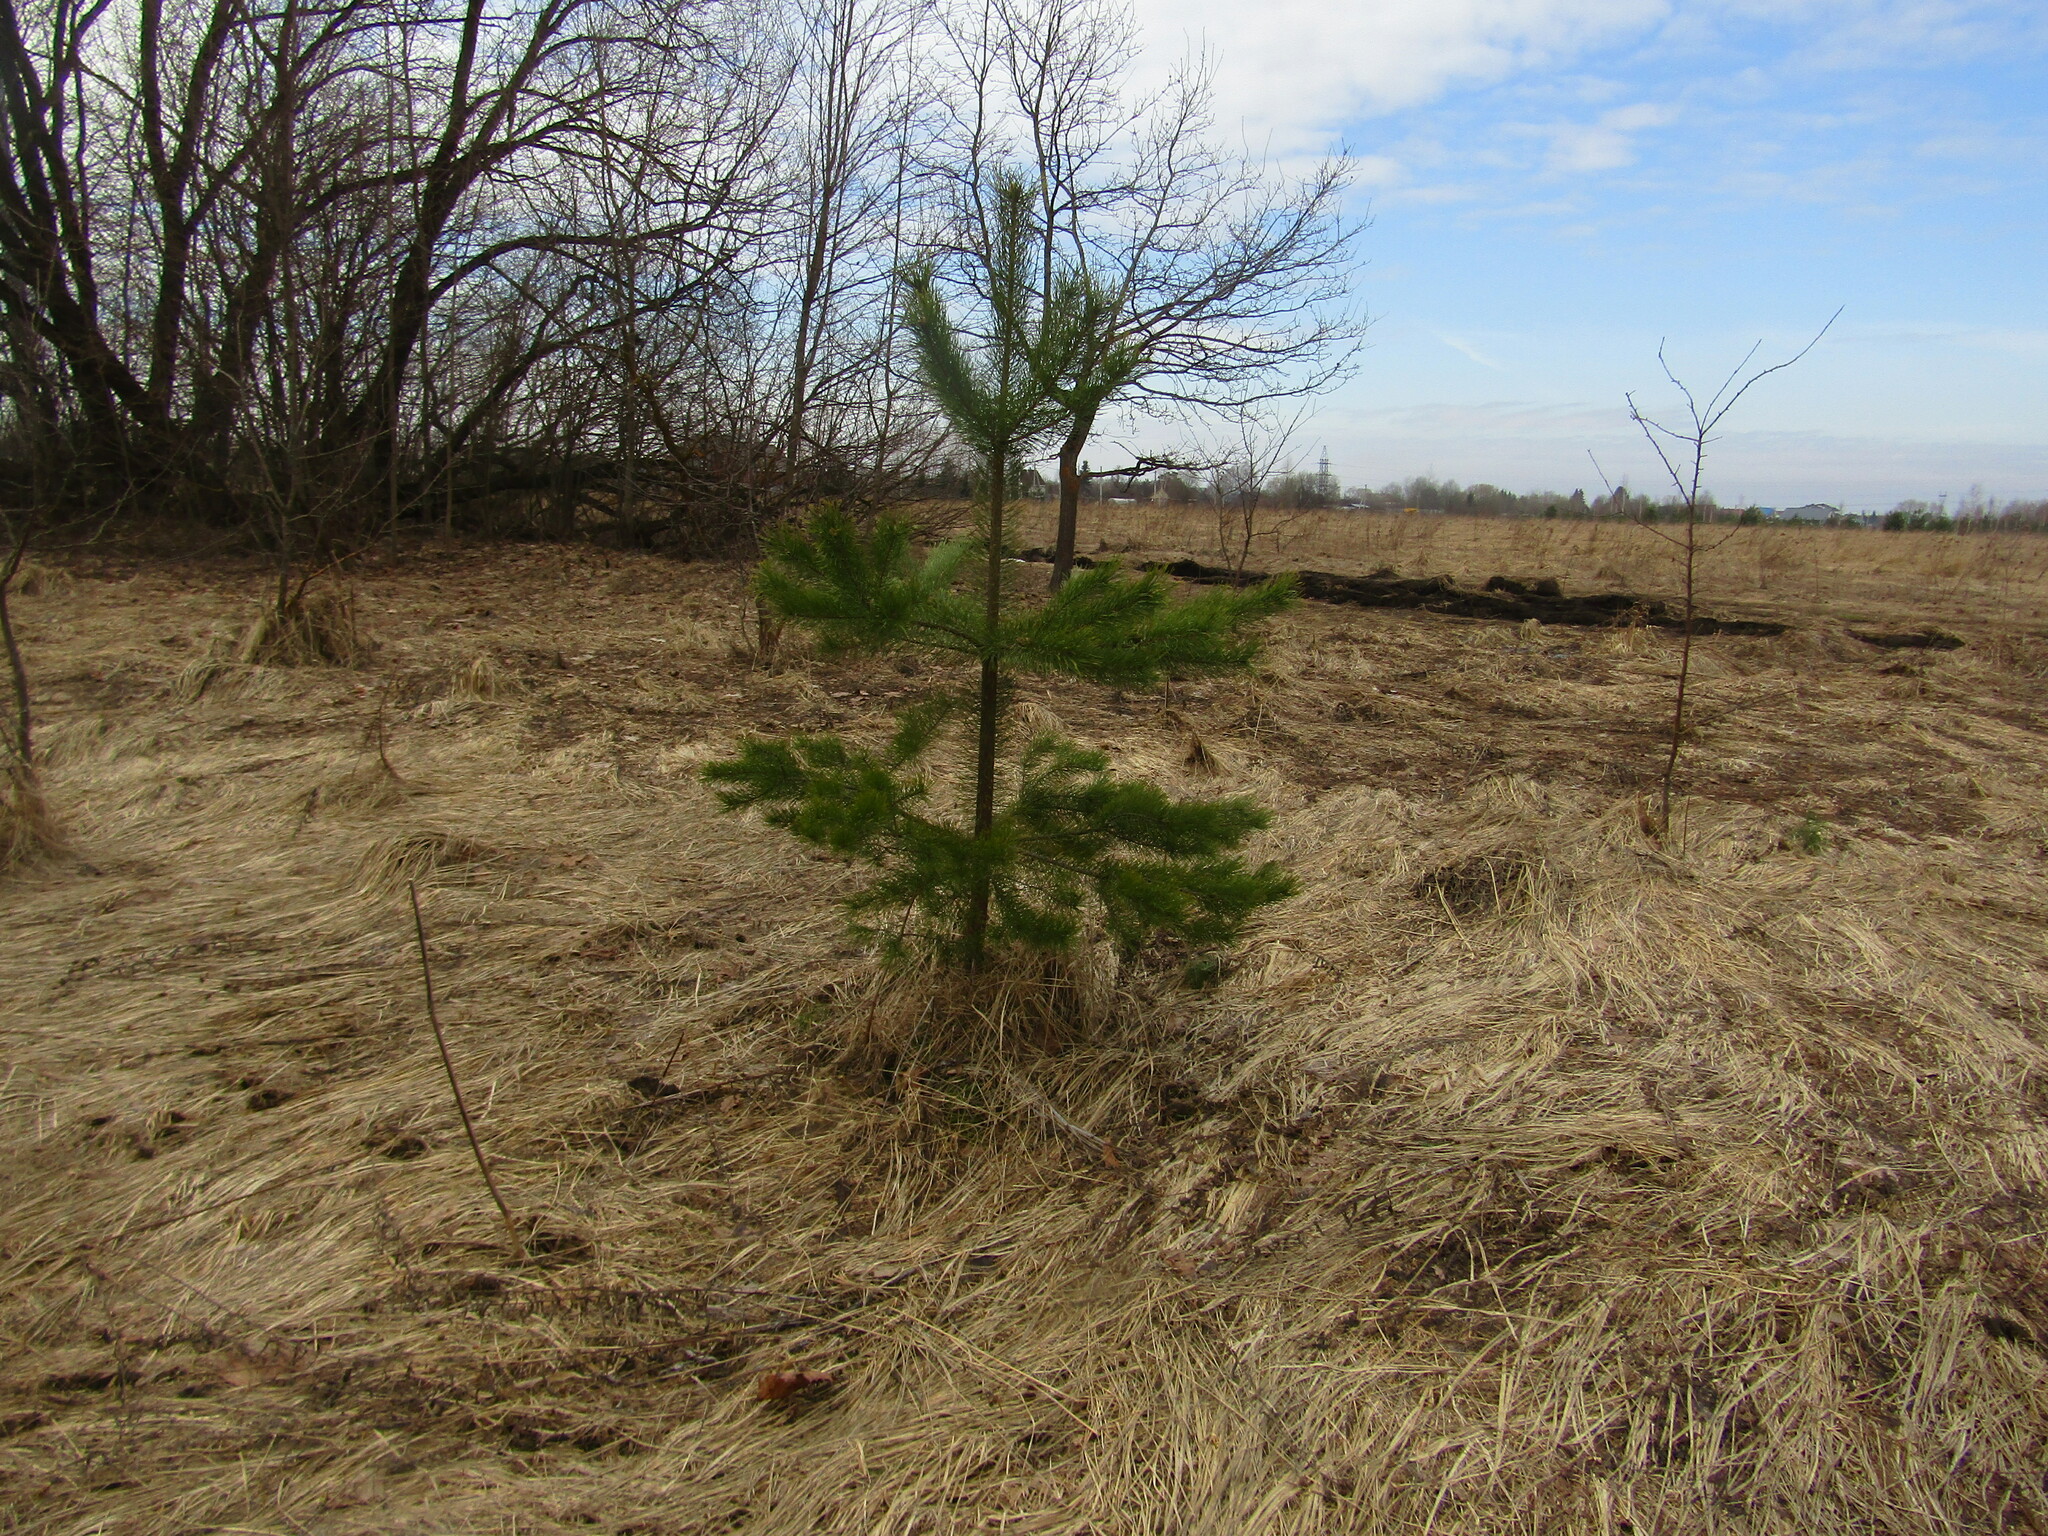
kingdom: Plantae
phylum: Tracheophyta
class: Pinopsida
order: Pinales
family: Pinaceae
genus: Pinus
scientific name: Pinus sylvestris
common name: Scots pine
